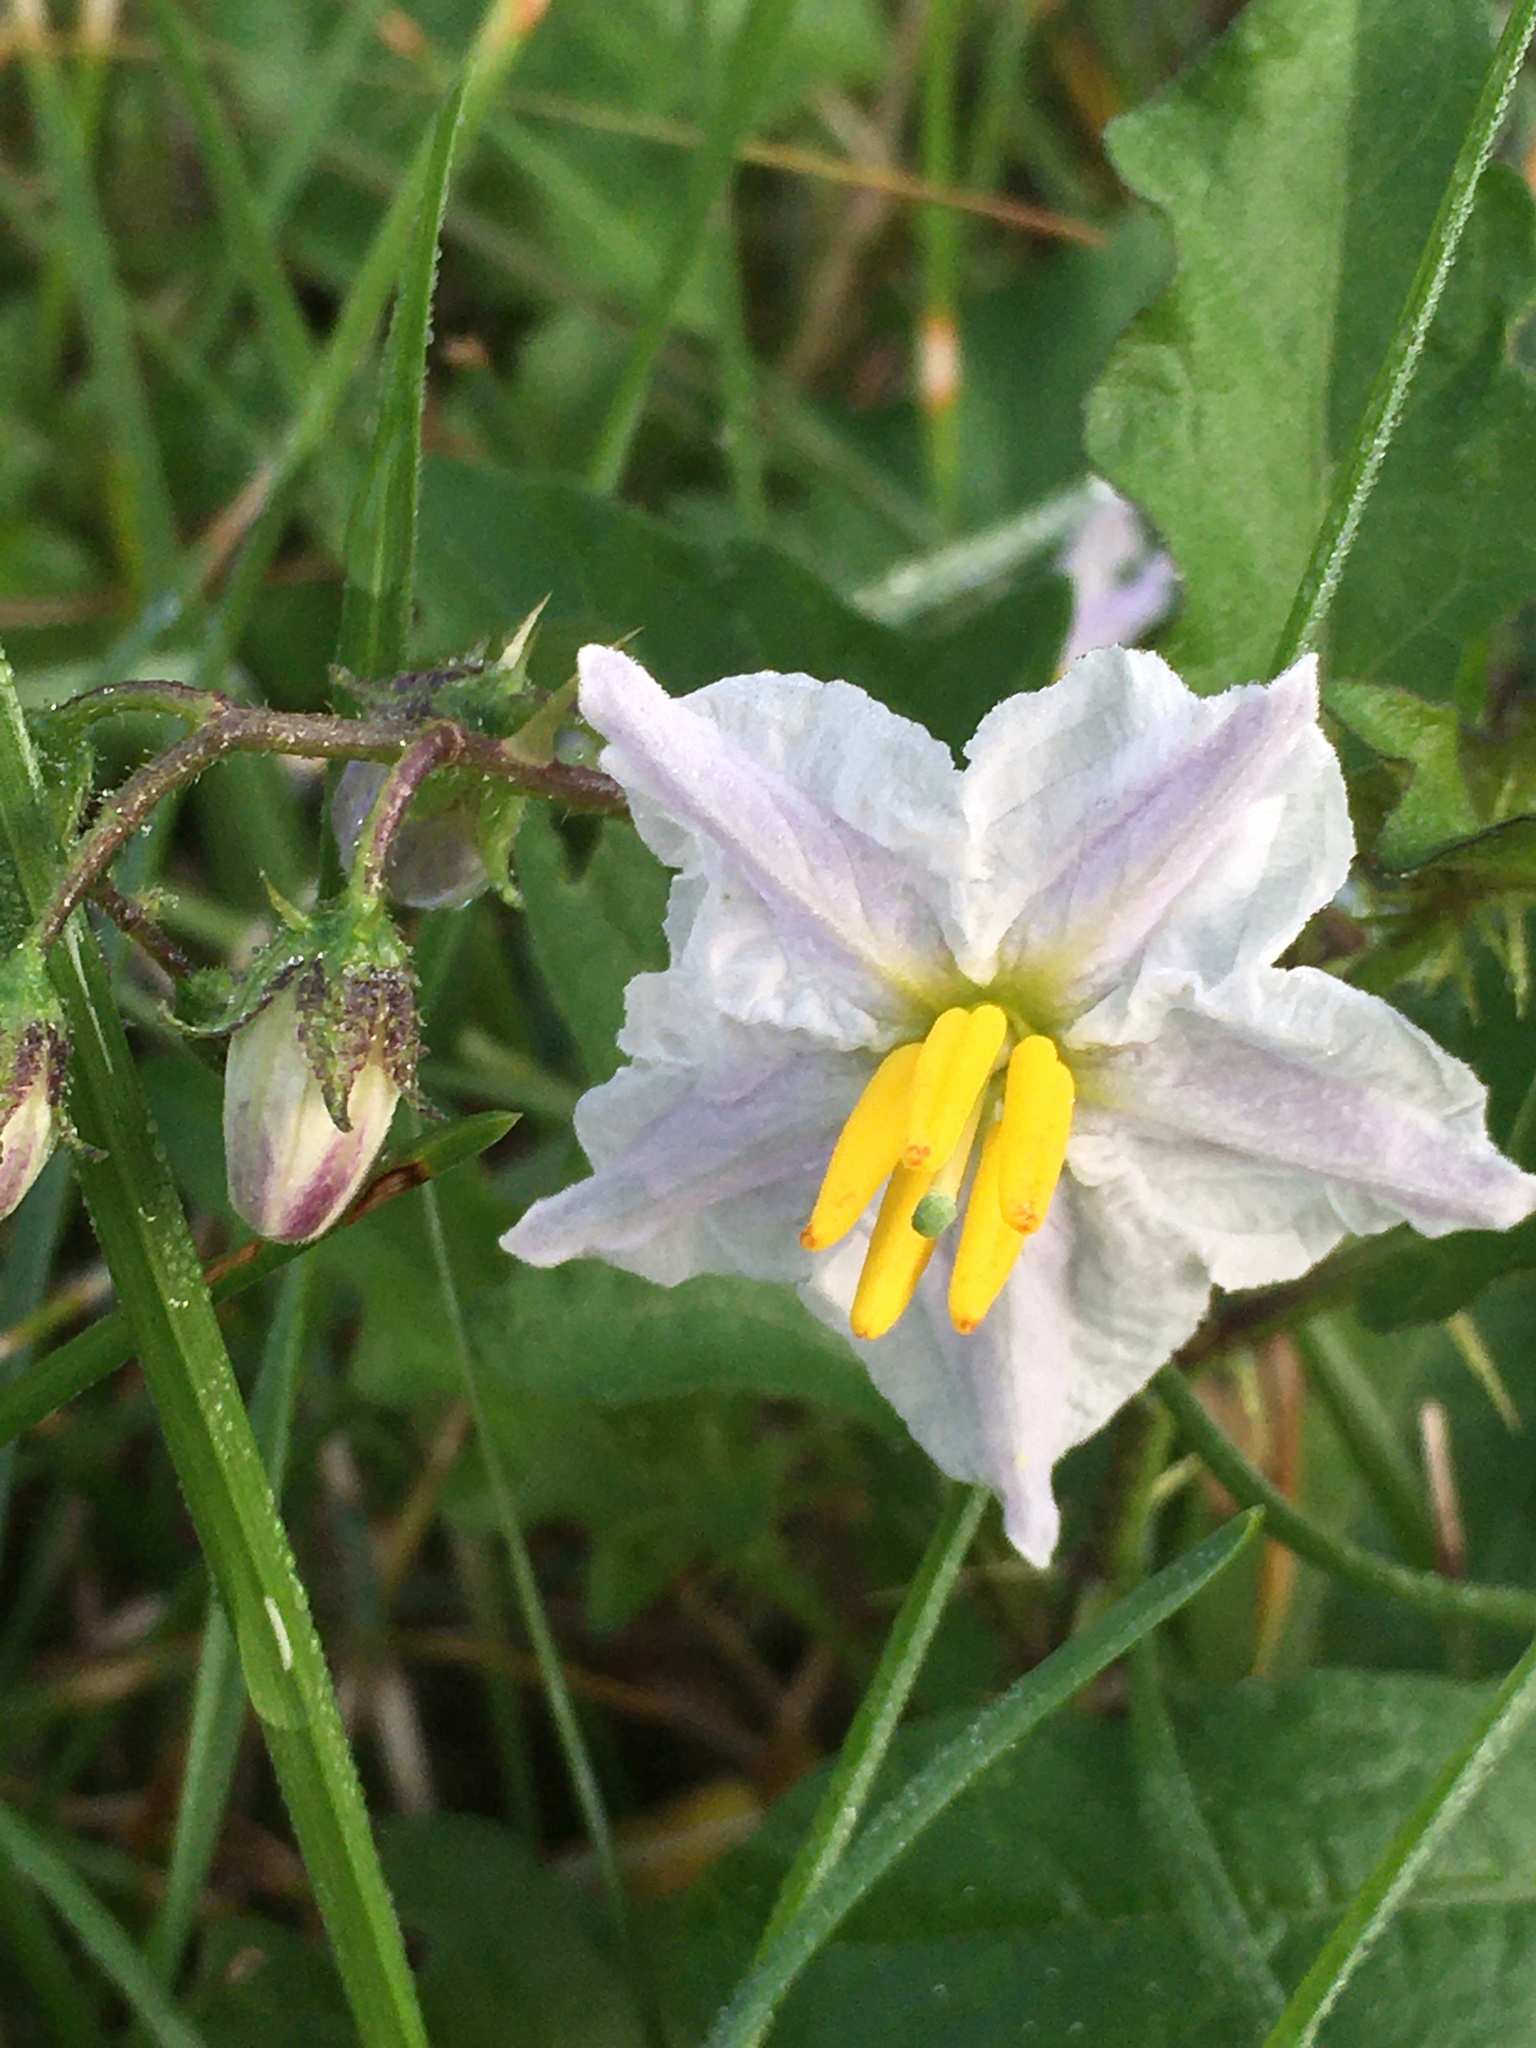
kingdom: Plantae
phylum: Tracheophyta
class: Magnoliopsida
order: Solanales
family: Solanaceae
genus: Solanum
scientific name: Solanum carolinense
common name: Horse-nettle
